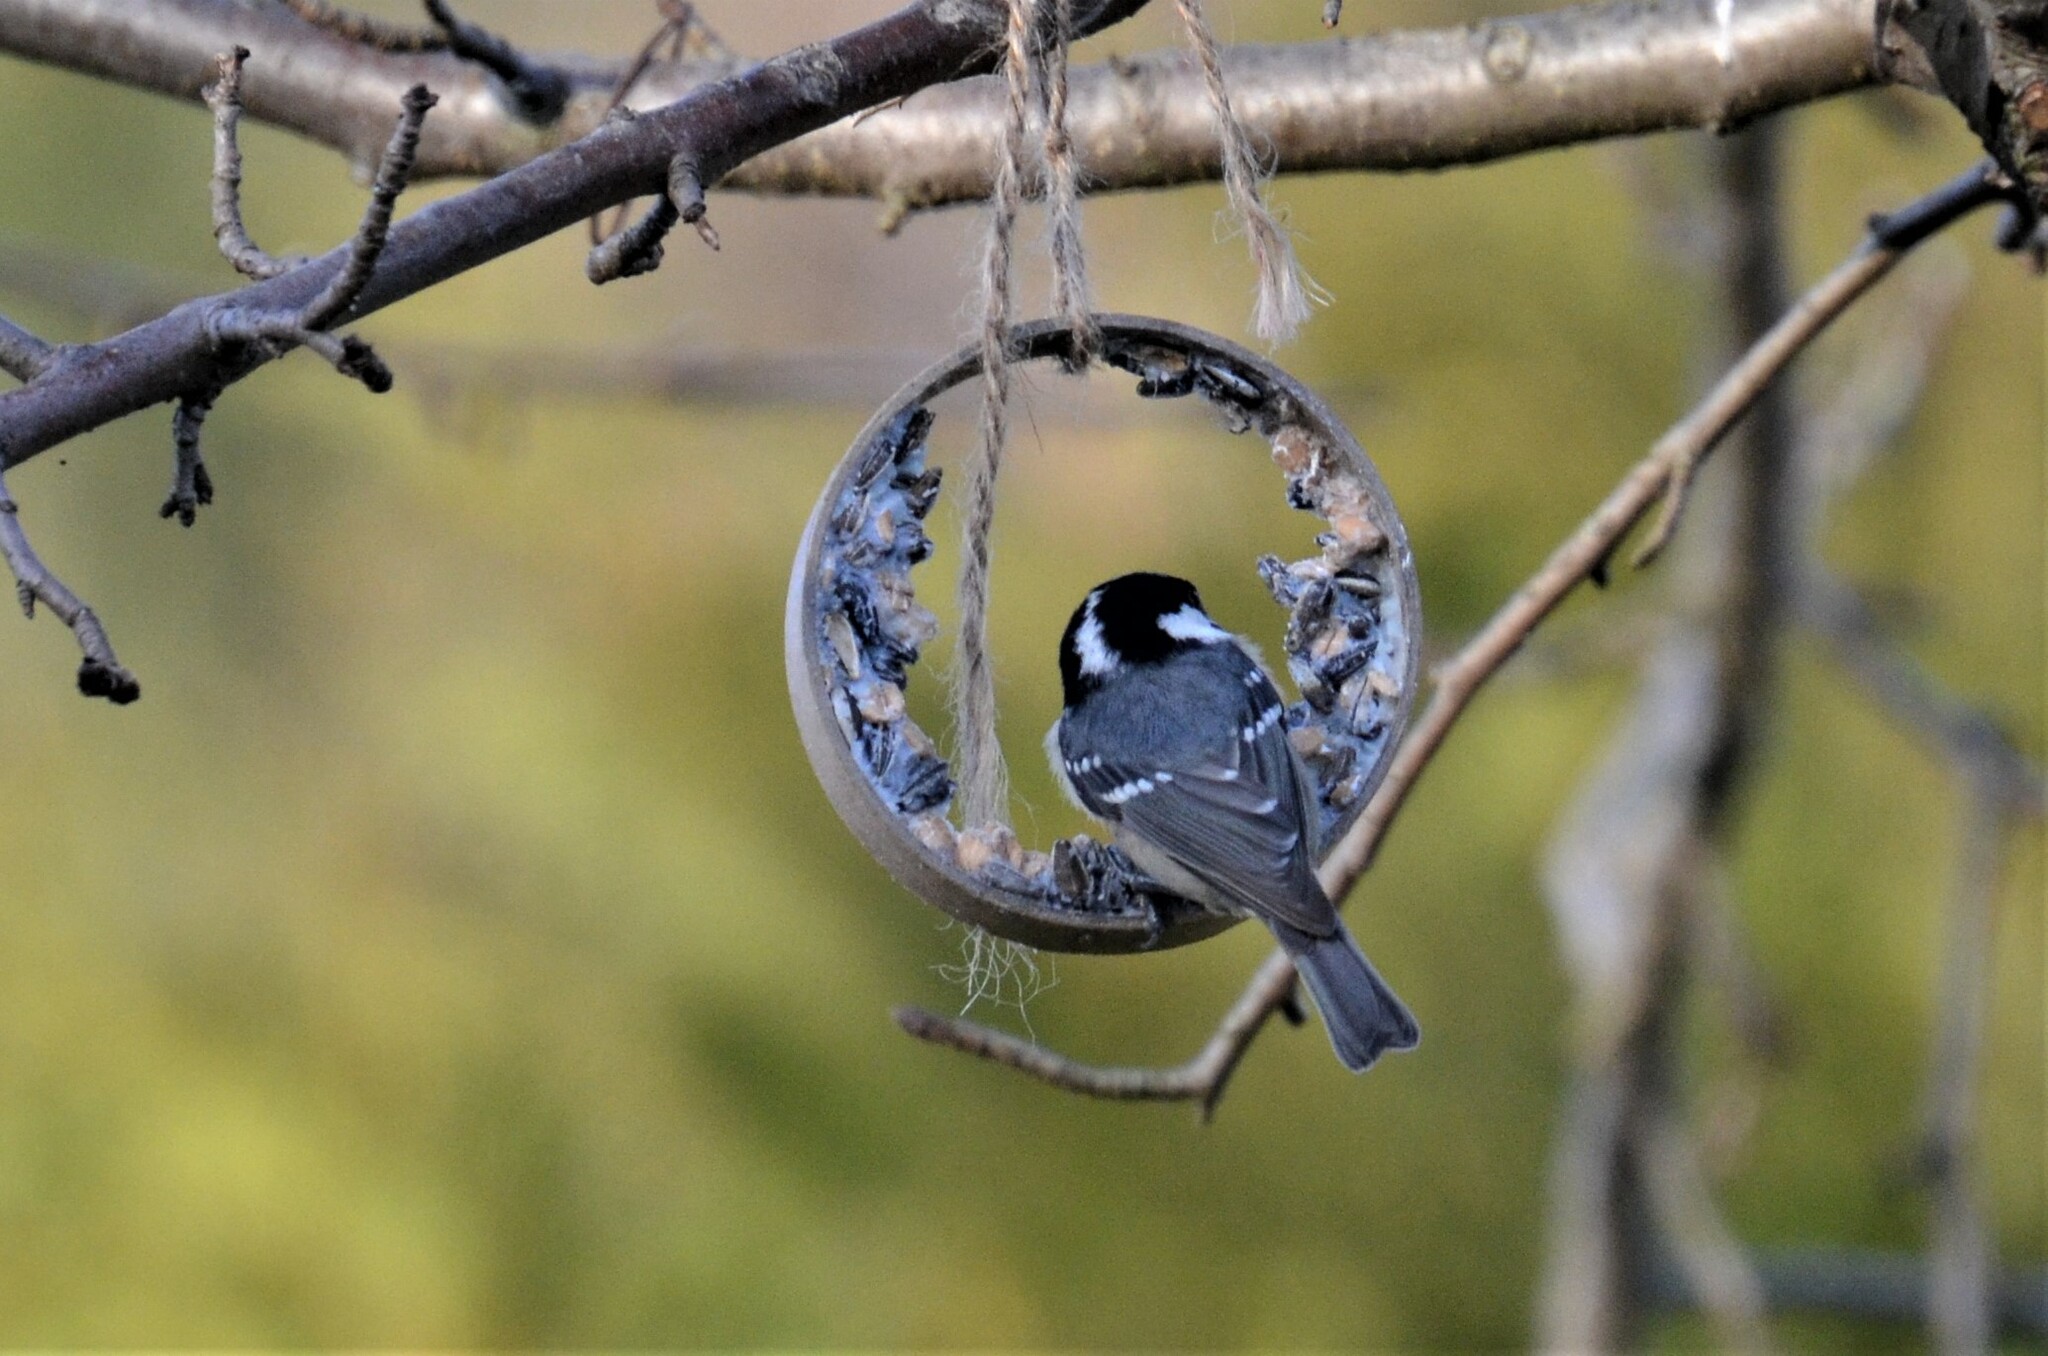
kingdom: Animalia
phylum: Chordata
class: Aves
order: Passeriformes
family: Paridae
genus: Periparus
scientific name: Periparus ater
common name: Coal tit
